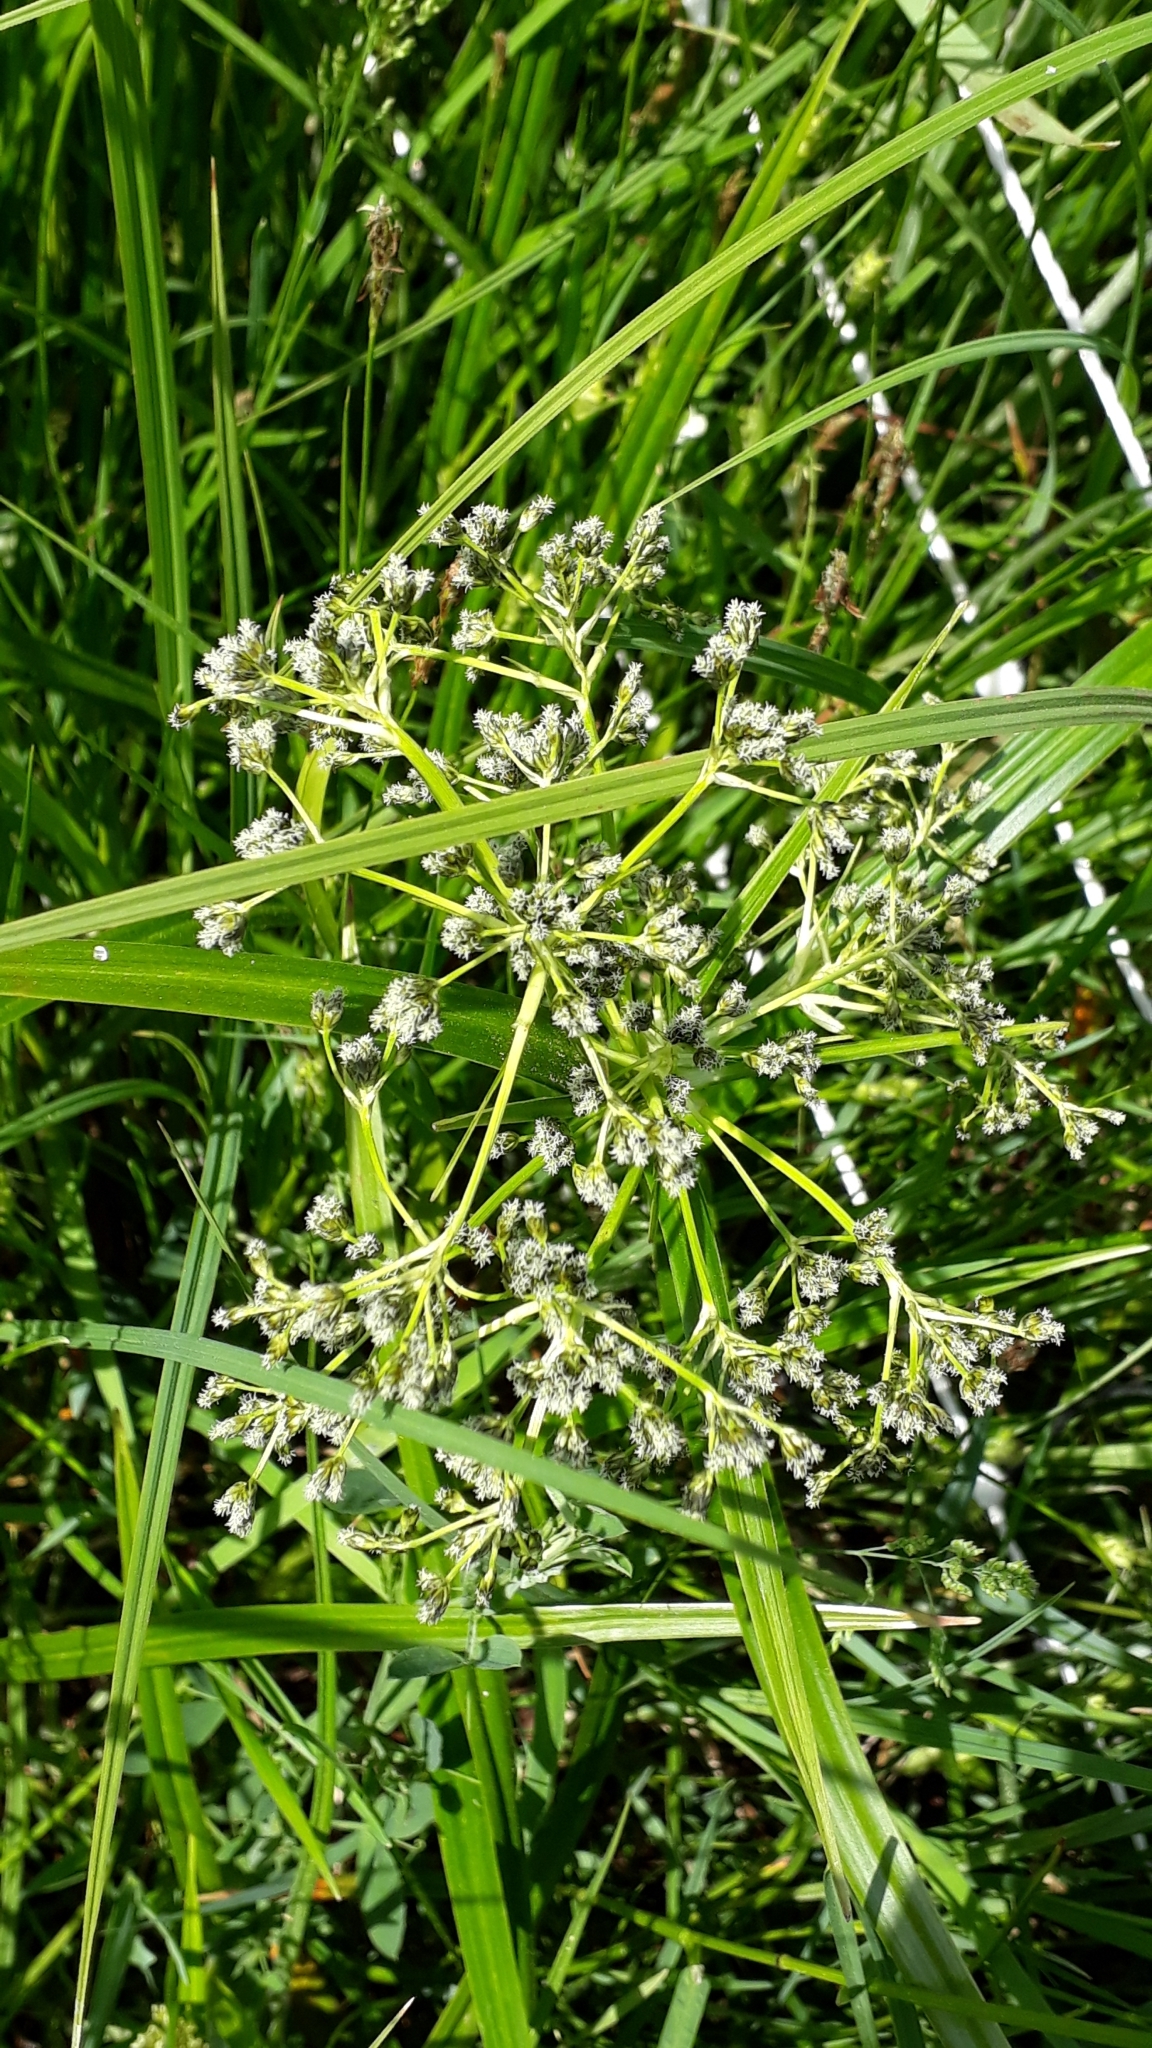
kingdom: Plantae
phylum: Tracheophyta
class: Liliopsida
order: Poales
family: Cyperaceae
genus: Scirpus
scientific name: Scirpus sylvaticus
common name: Wood club-rush
